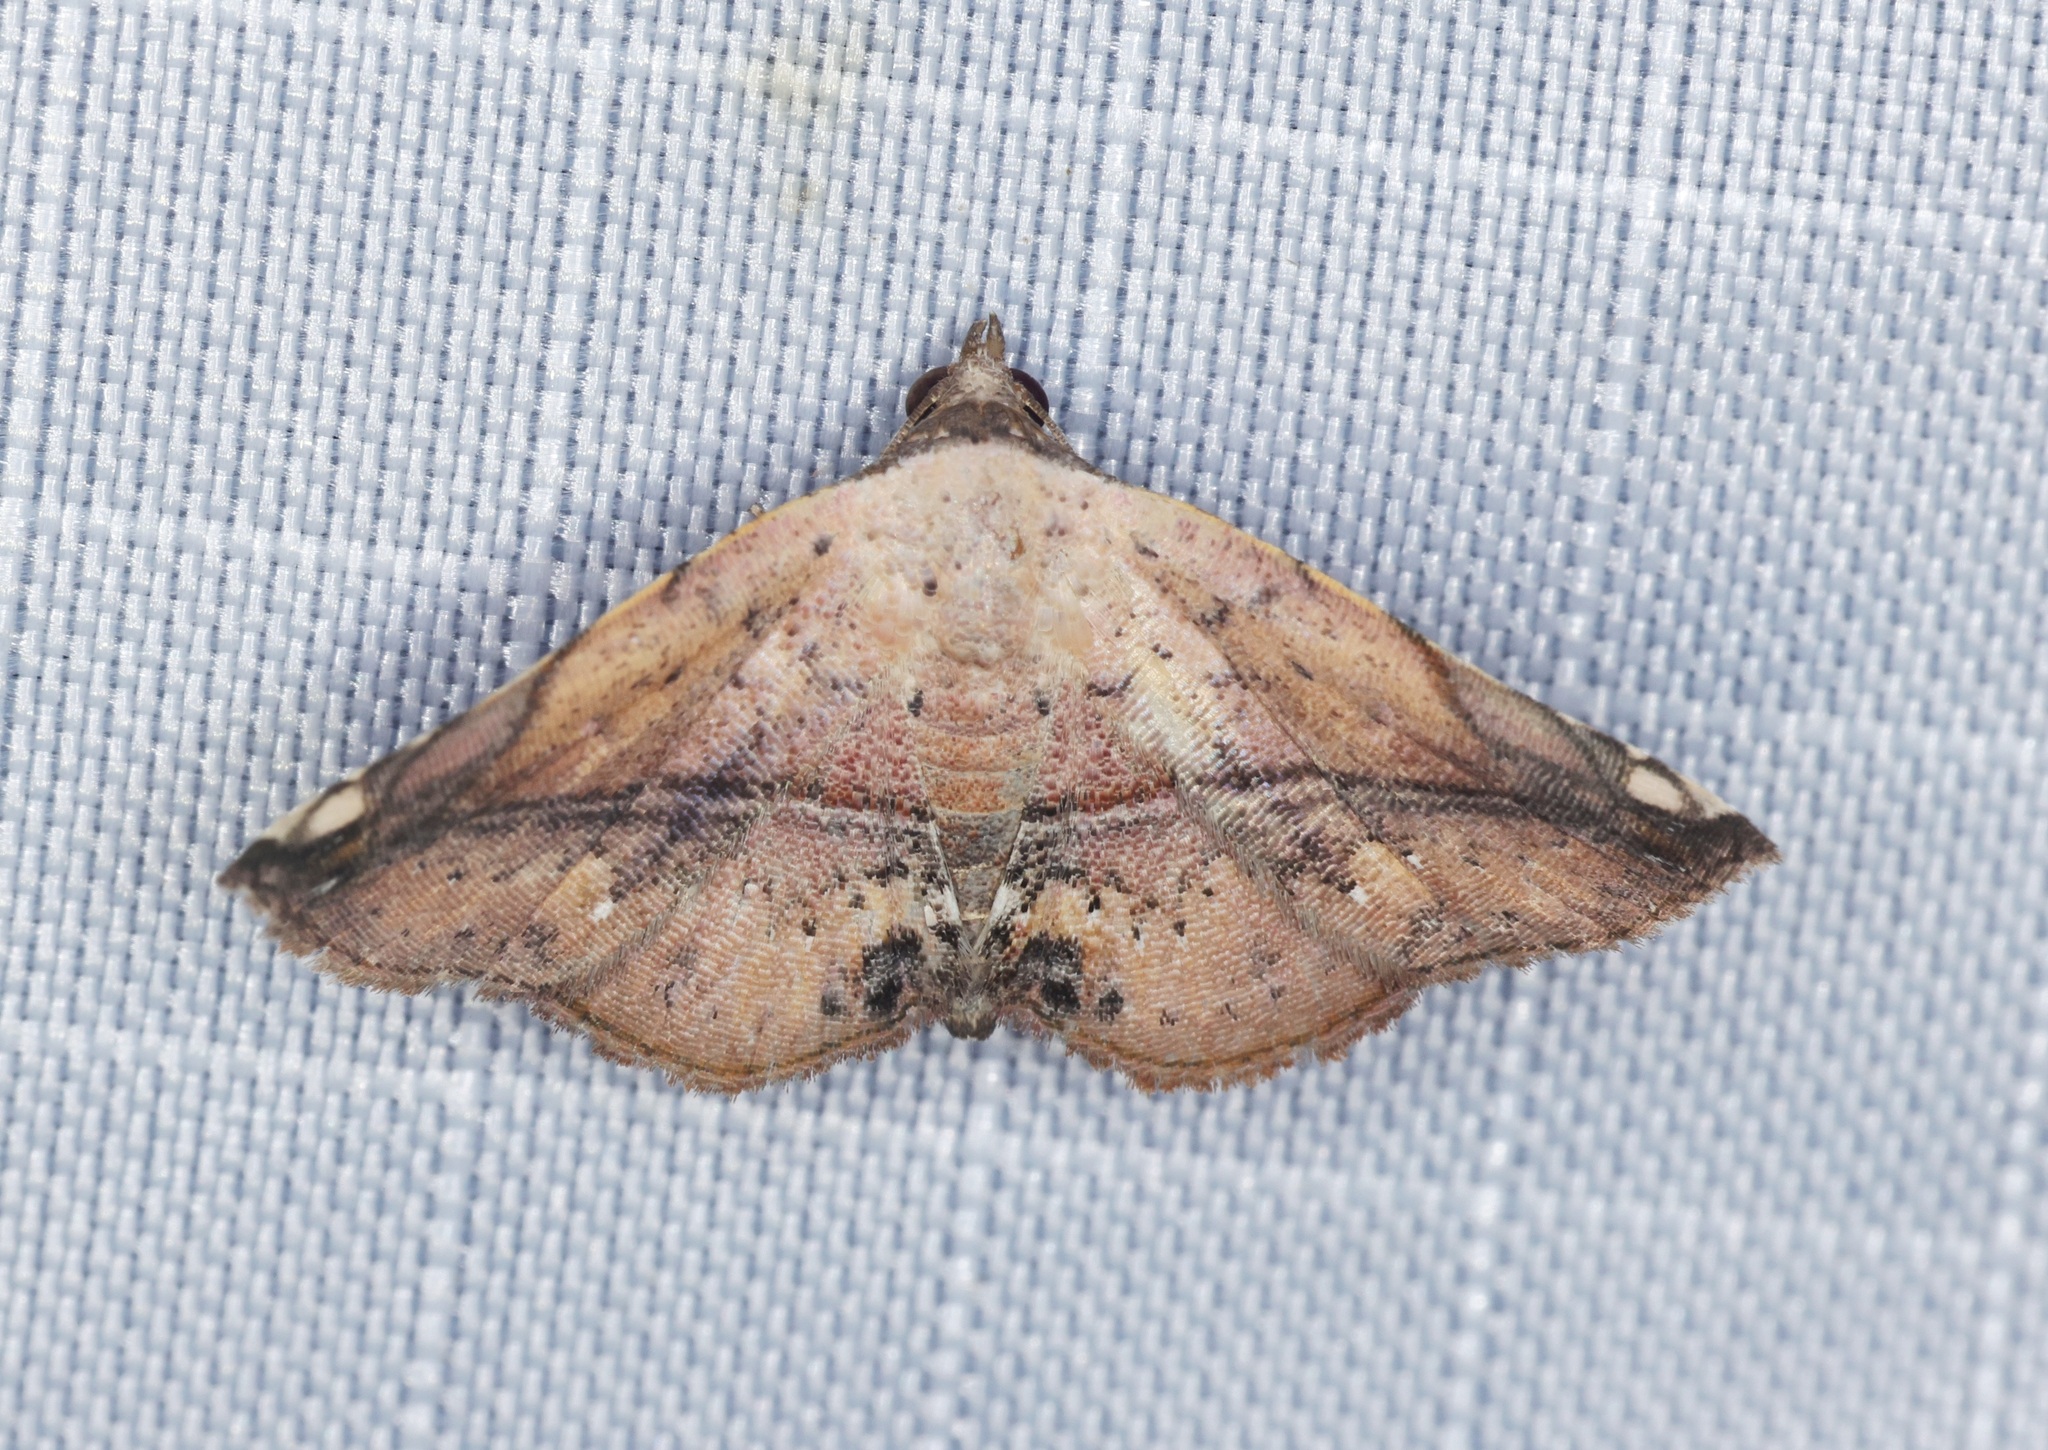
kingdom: Animalia
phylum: Arthropoda
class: Insecta
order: Lepidoptera
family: Noctuidae
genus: Eublemma
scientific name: Eublemma abrupta
